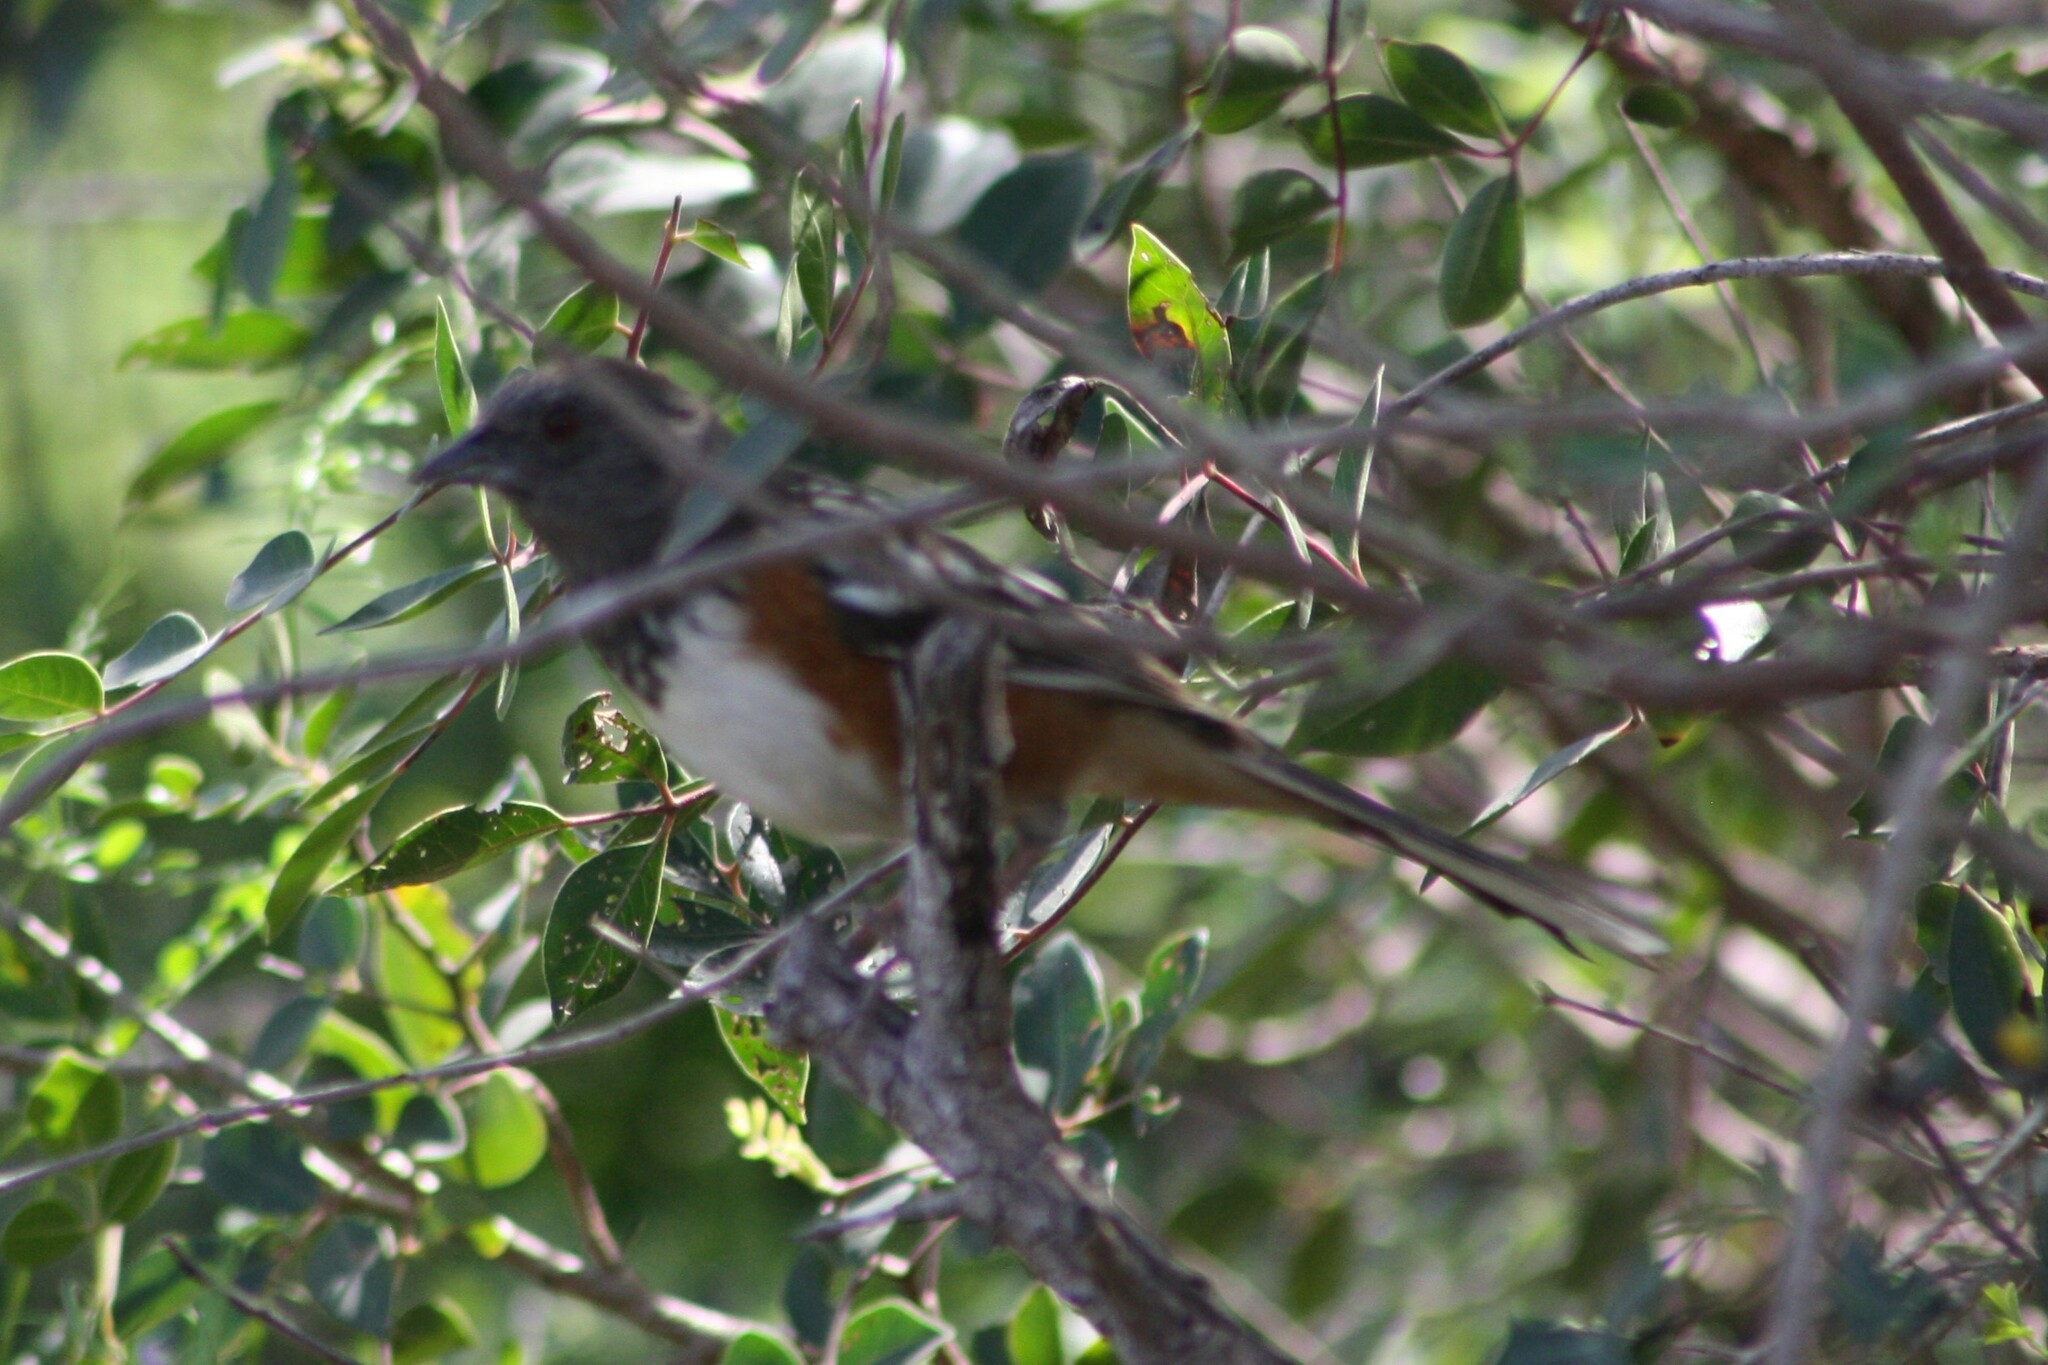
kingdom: Animalia
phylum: Chordata
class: Aves
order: Passeriformes
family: Passerellidae
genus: Pipilo
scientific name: Pipilo maculatus
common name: Spotted towhee
